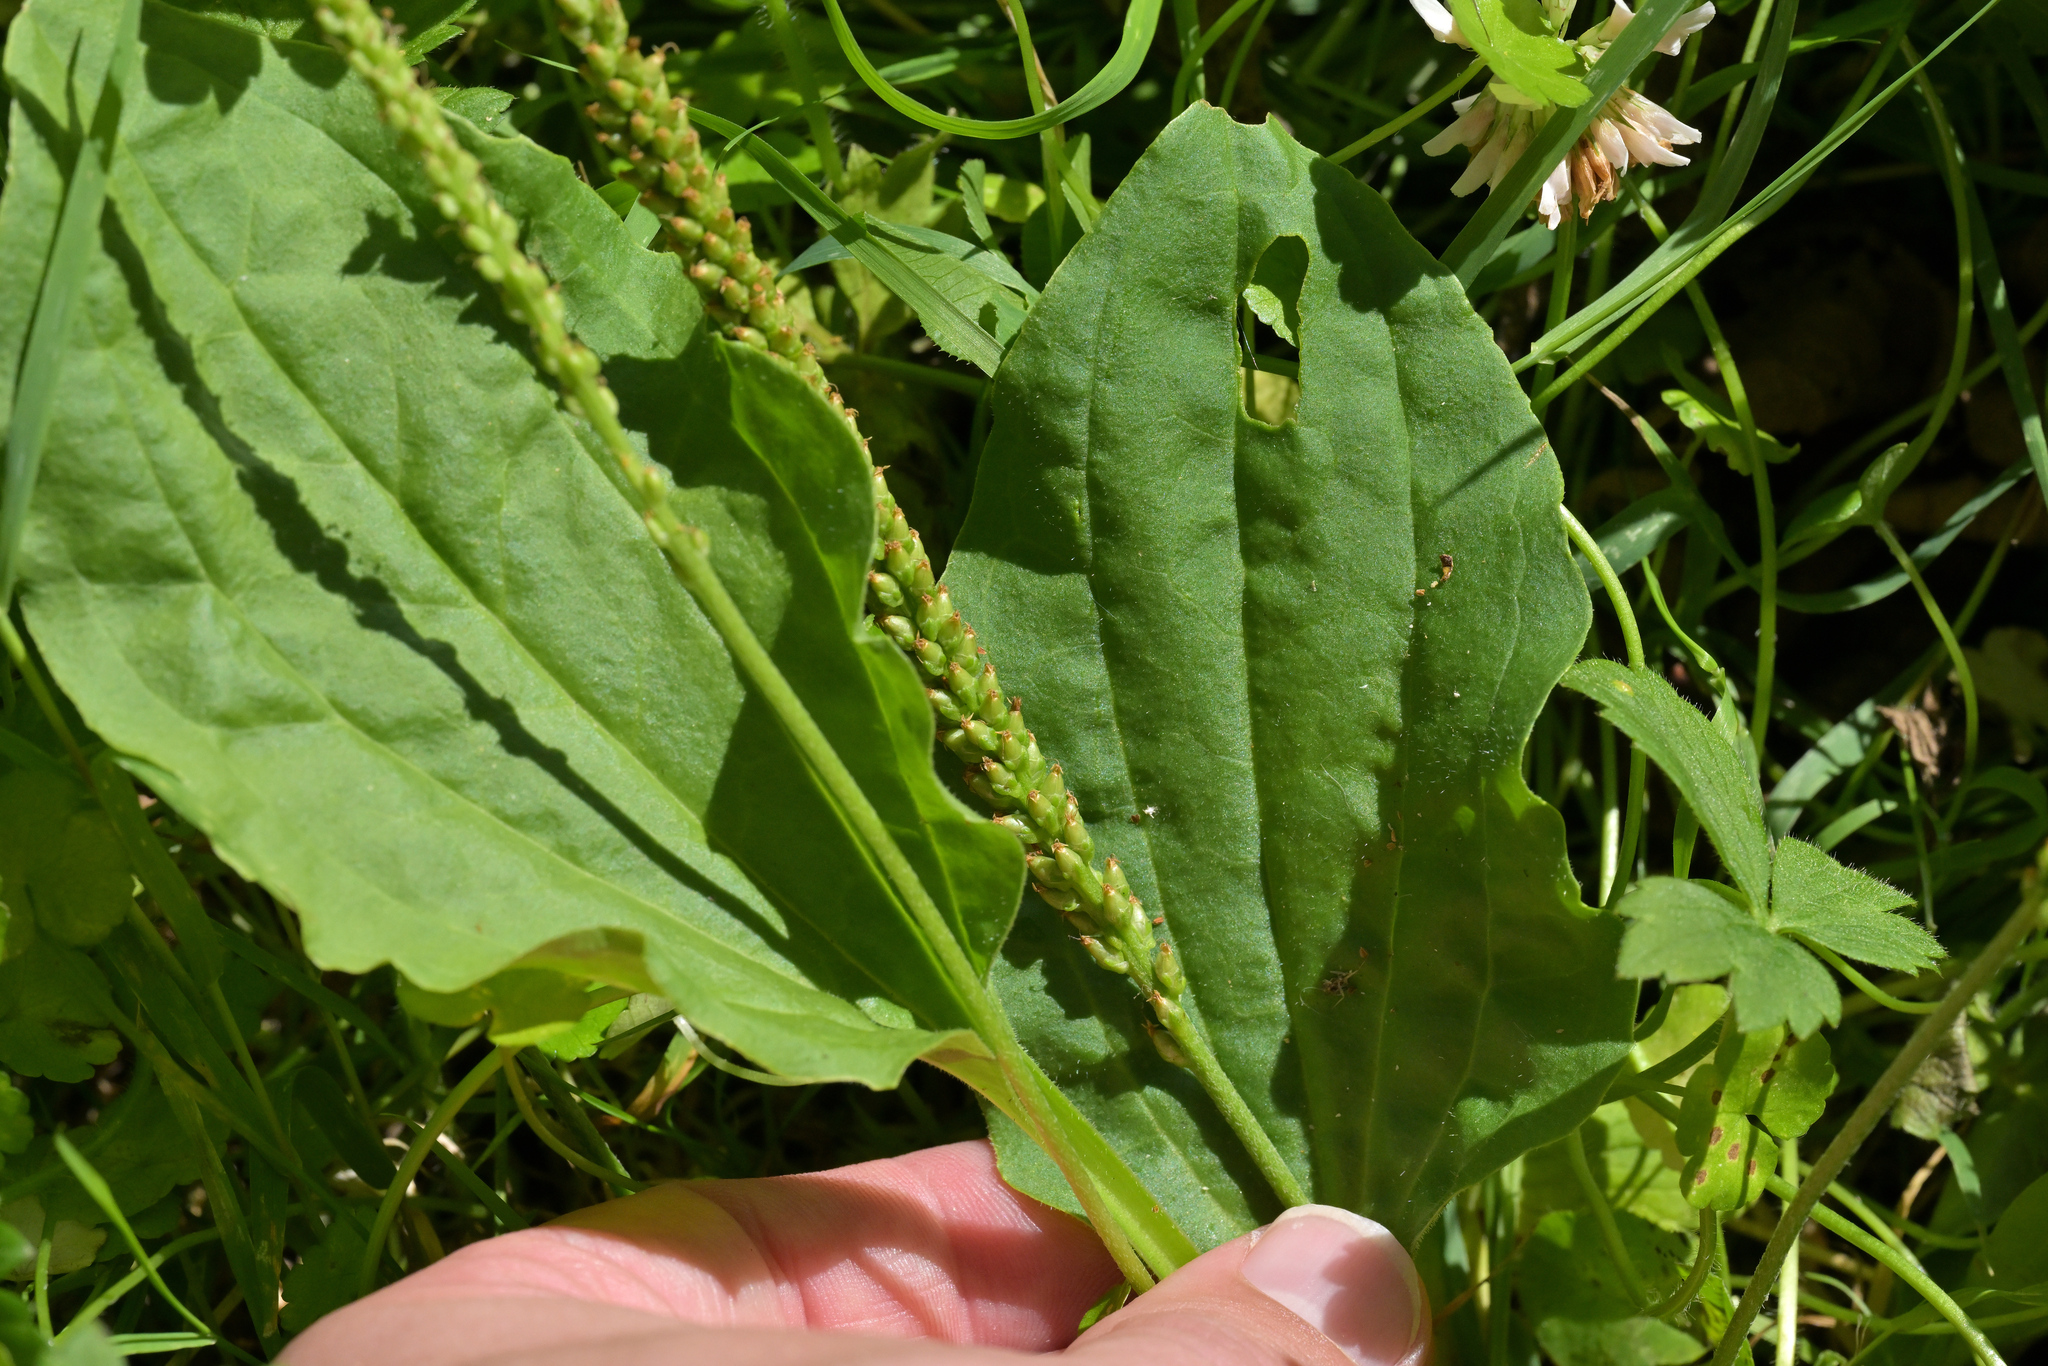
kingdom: Plantae
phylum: Tracheophyta
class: Magnoliopsida
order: Lamiales
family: Plantaginaceae
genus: Plantago
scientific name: Plantago major
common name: Common plantain
